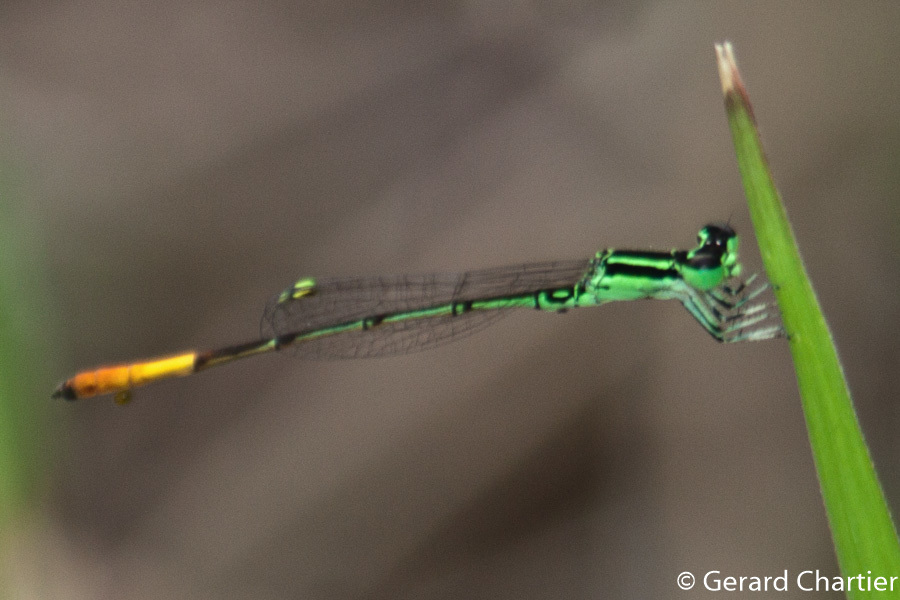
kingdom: Animalia
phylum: Arthropoda
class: Insecta
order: Odonata
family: Coenagrionidae
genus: Agriocnemis
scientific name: Agriocnemis minima
